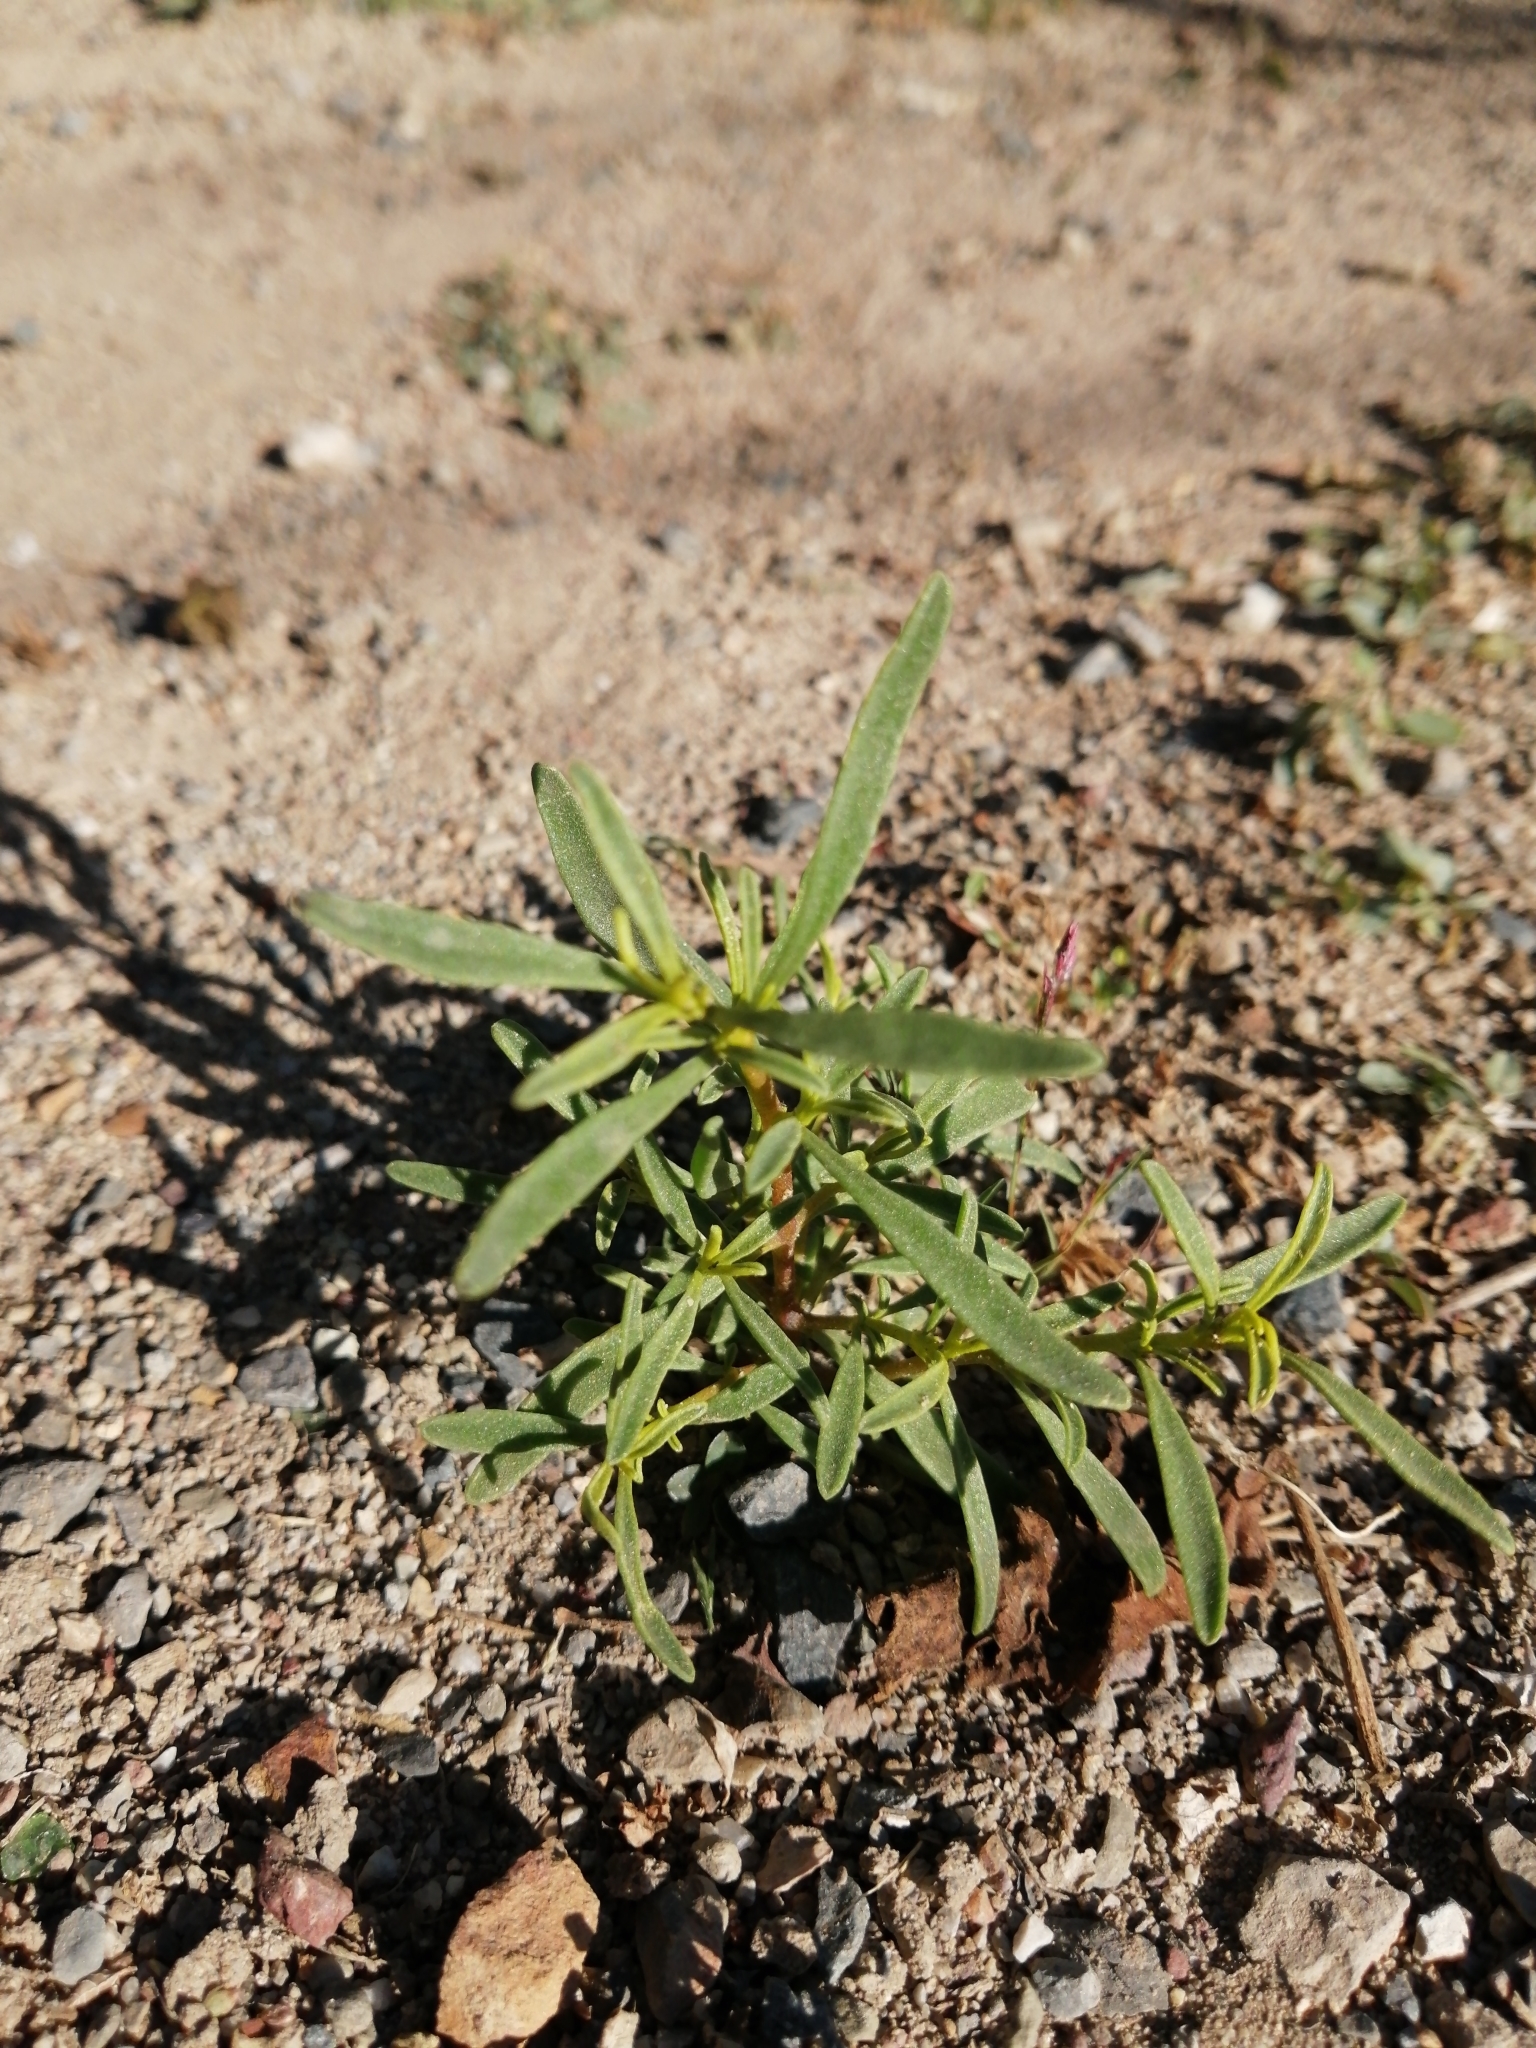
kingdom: Plantae
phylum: Tracheophyta
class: Magnoliopsida
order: Caryophyllales
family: Aizoaceae
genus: Aizoon
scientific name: Aizoon africanum
